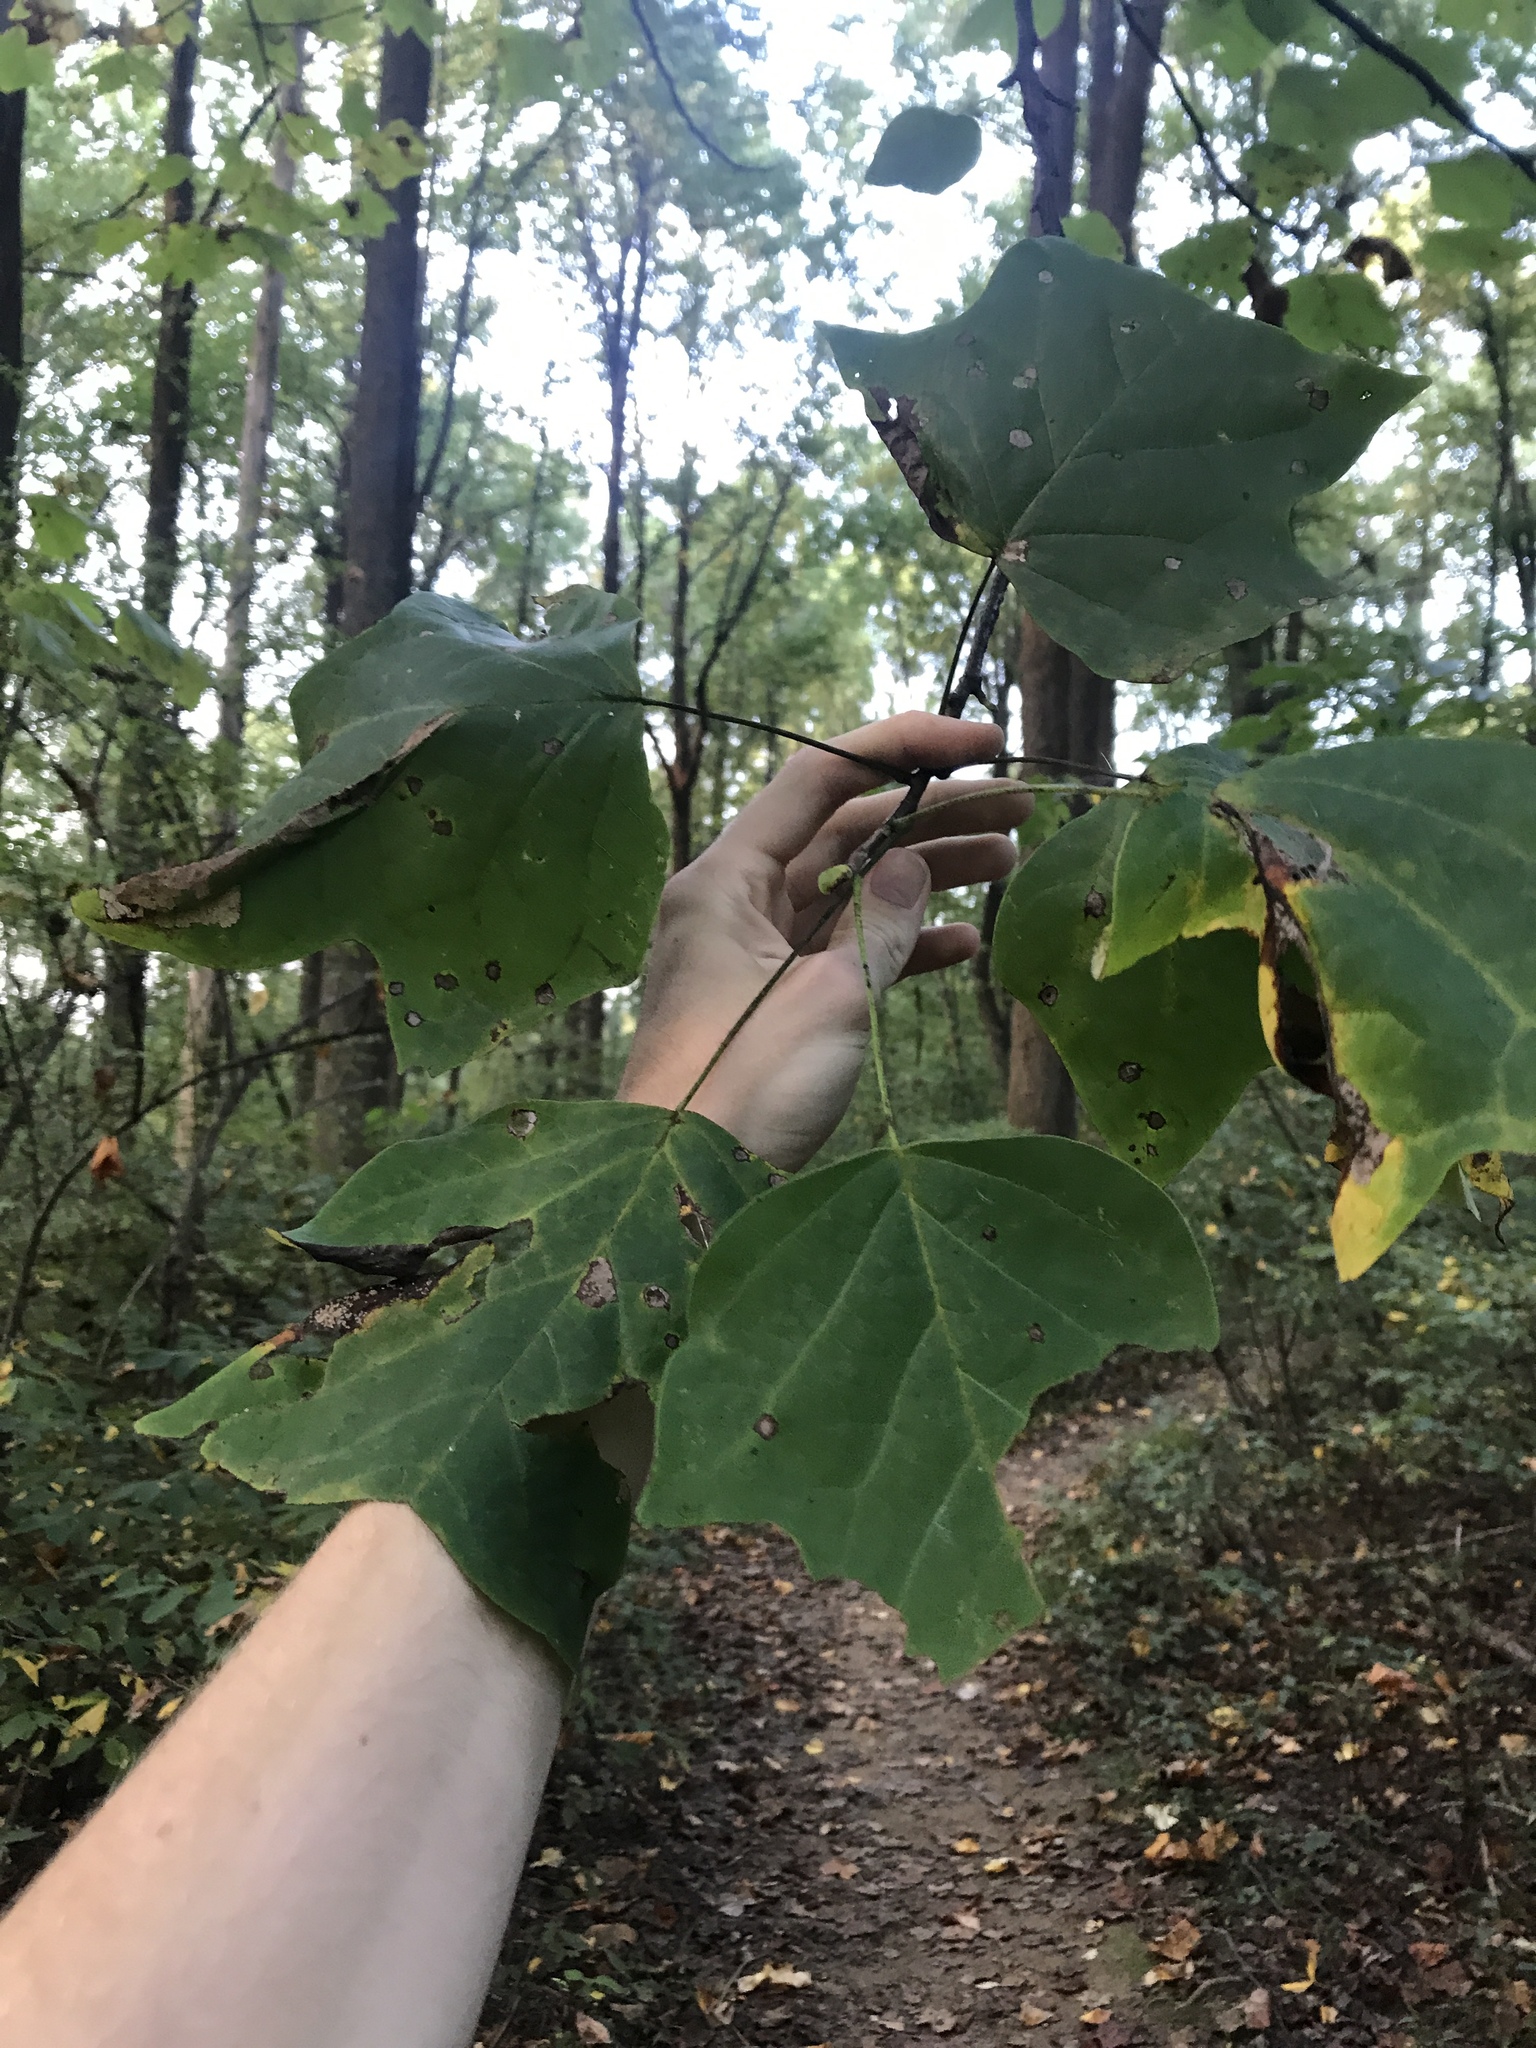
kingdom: Plantae
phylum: Tracheophyta
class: Magnoliopsida
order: Magnoliales
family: Magnoliaceae
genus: Liriodendron
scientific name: Liriodendron tulipifera
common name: Tulip tree
